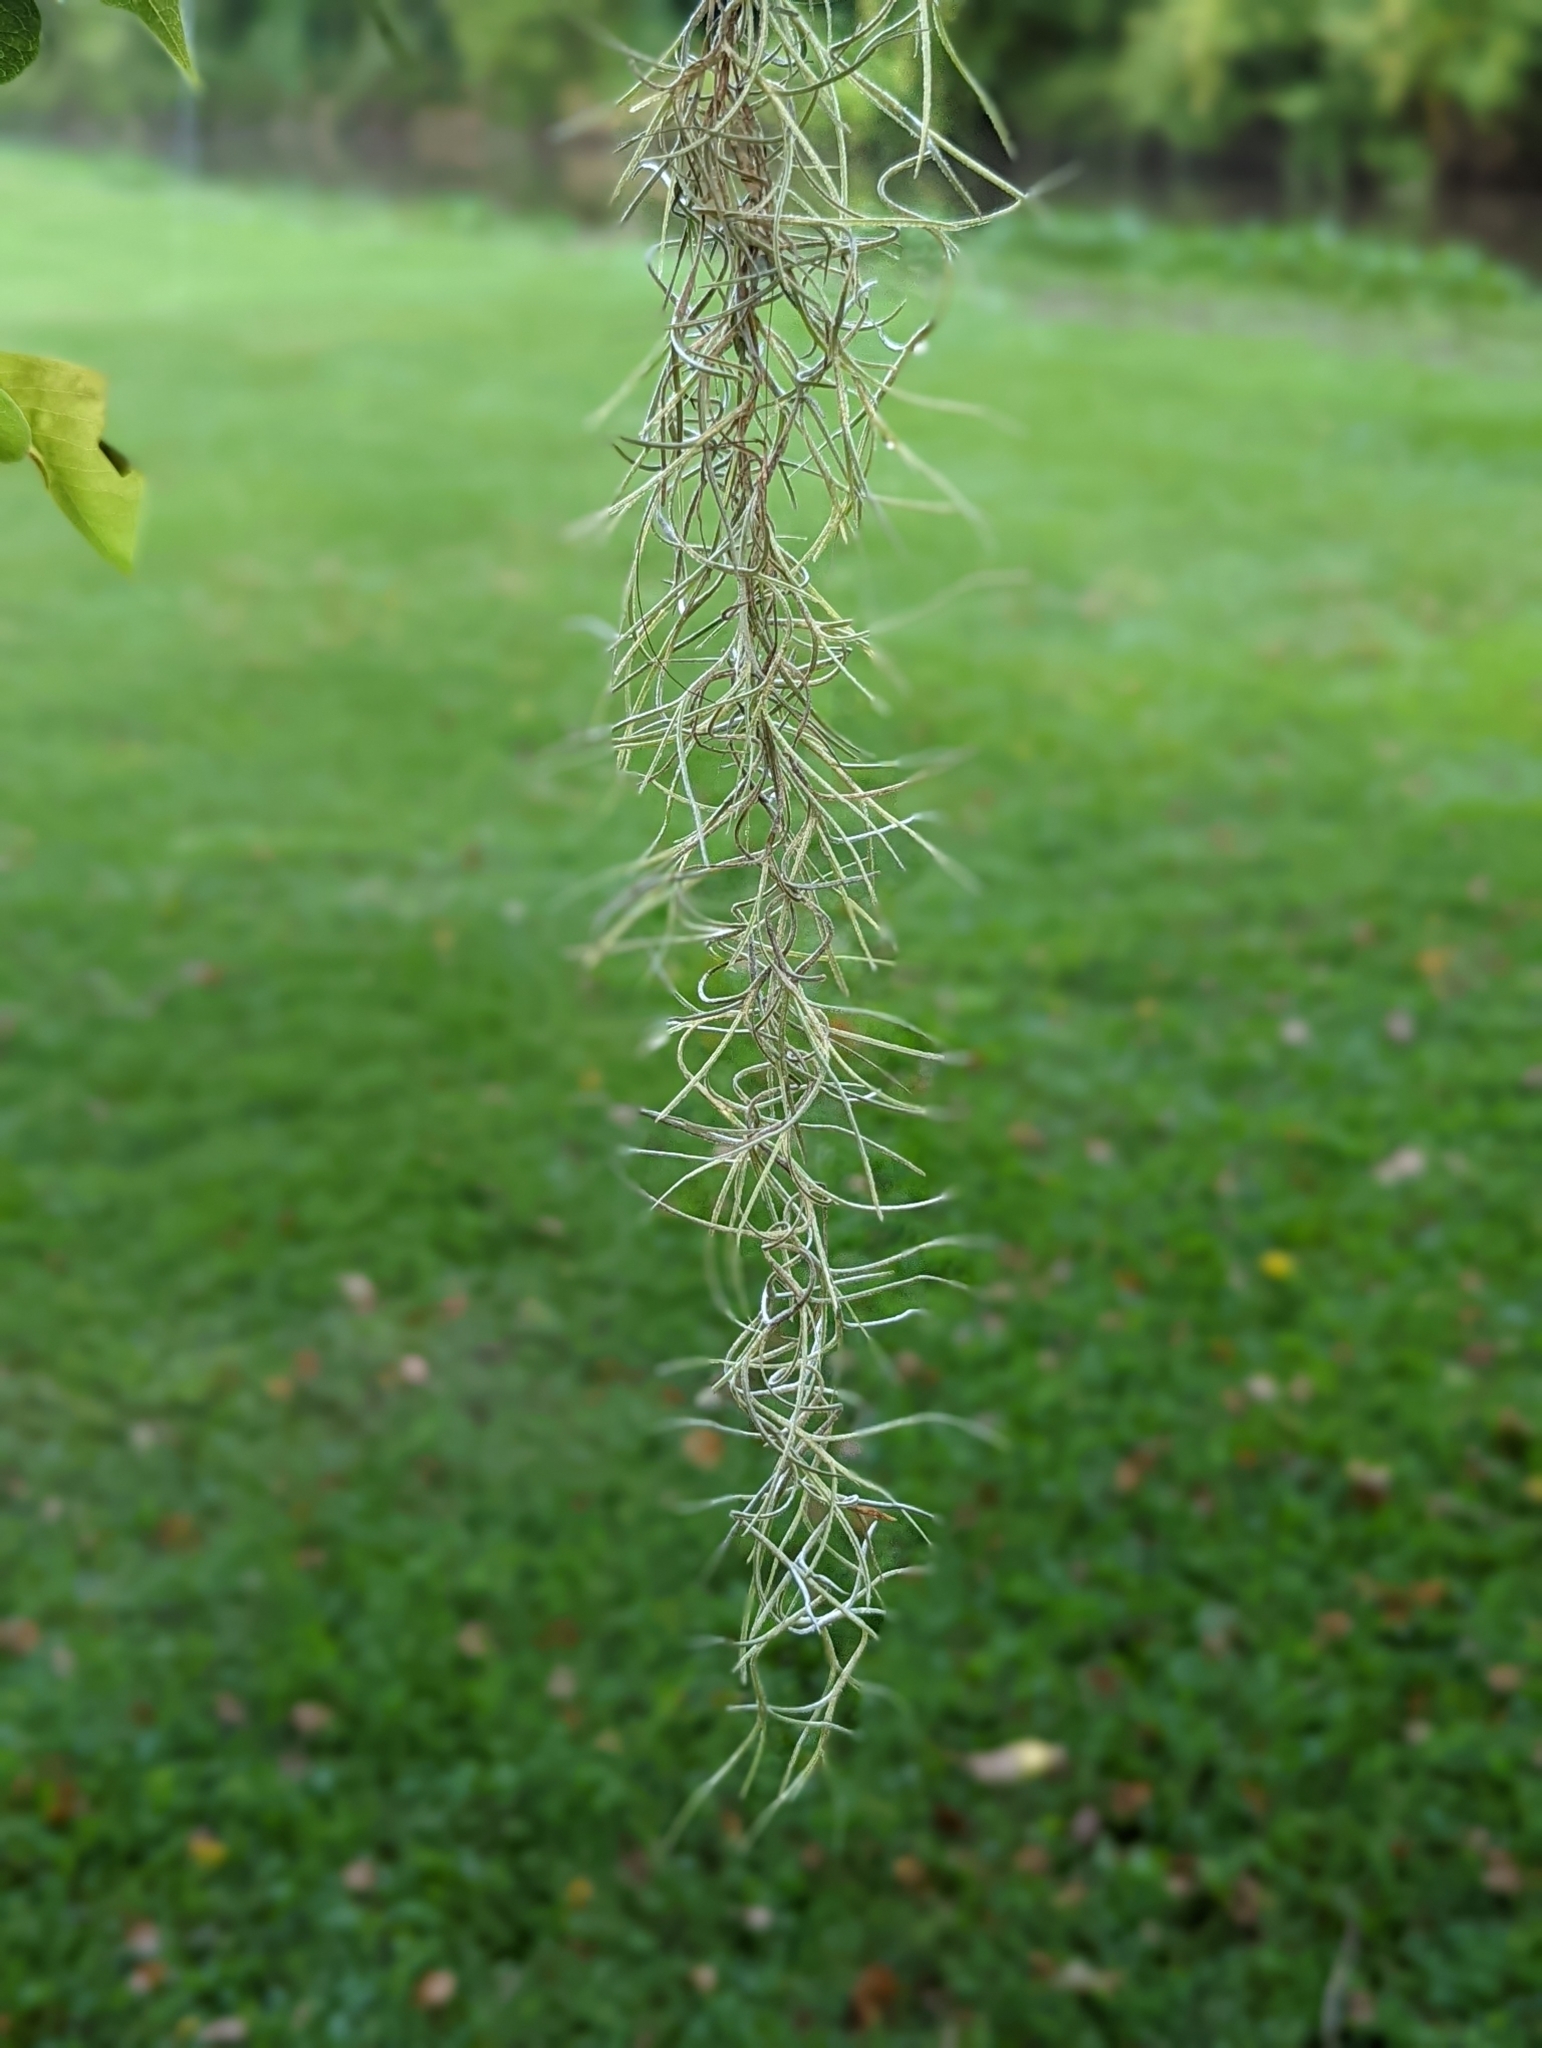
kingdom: Plantae
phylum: Tracheophyta
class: Liliopsida
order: Poales
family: Bromeliaceae
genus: Tillandsia
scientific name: Tillandsia usneoides
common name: Spanish moss
